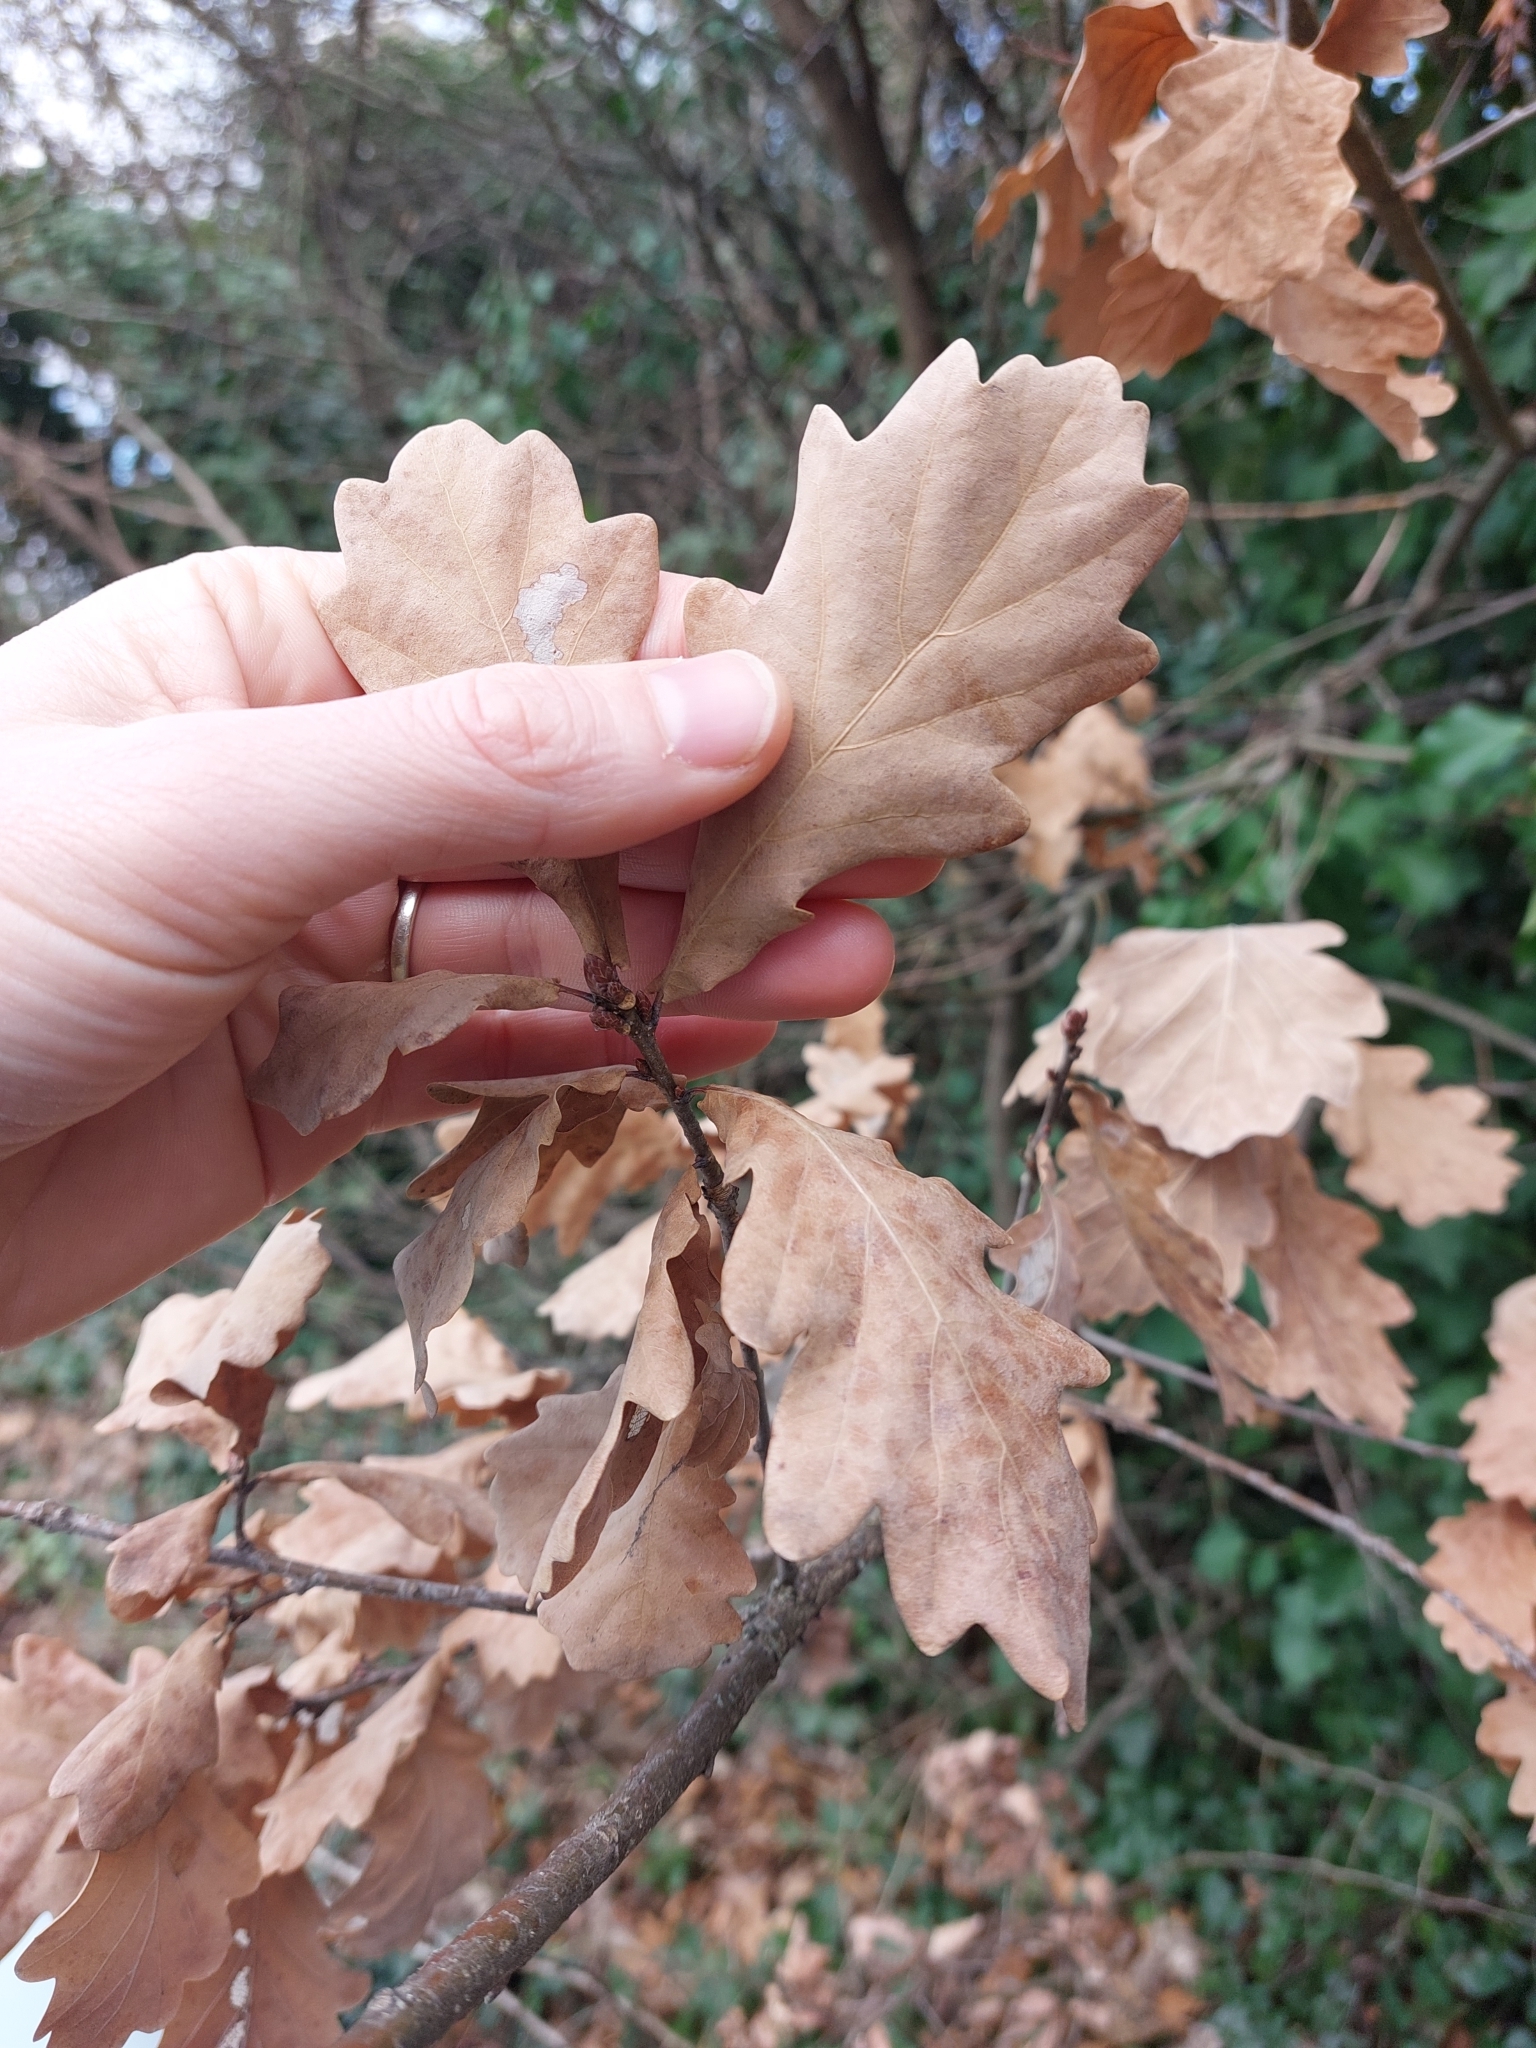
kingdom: Plantae
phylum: Tracheophyta
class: Magnoliopsida
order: Fagales
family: Fagaceae
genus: Quercus
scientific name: Quercus robur
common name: Pedunculate oak
